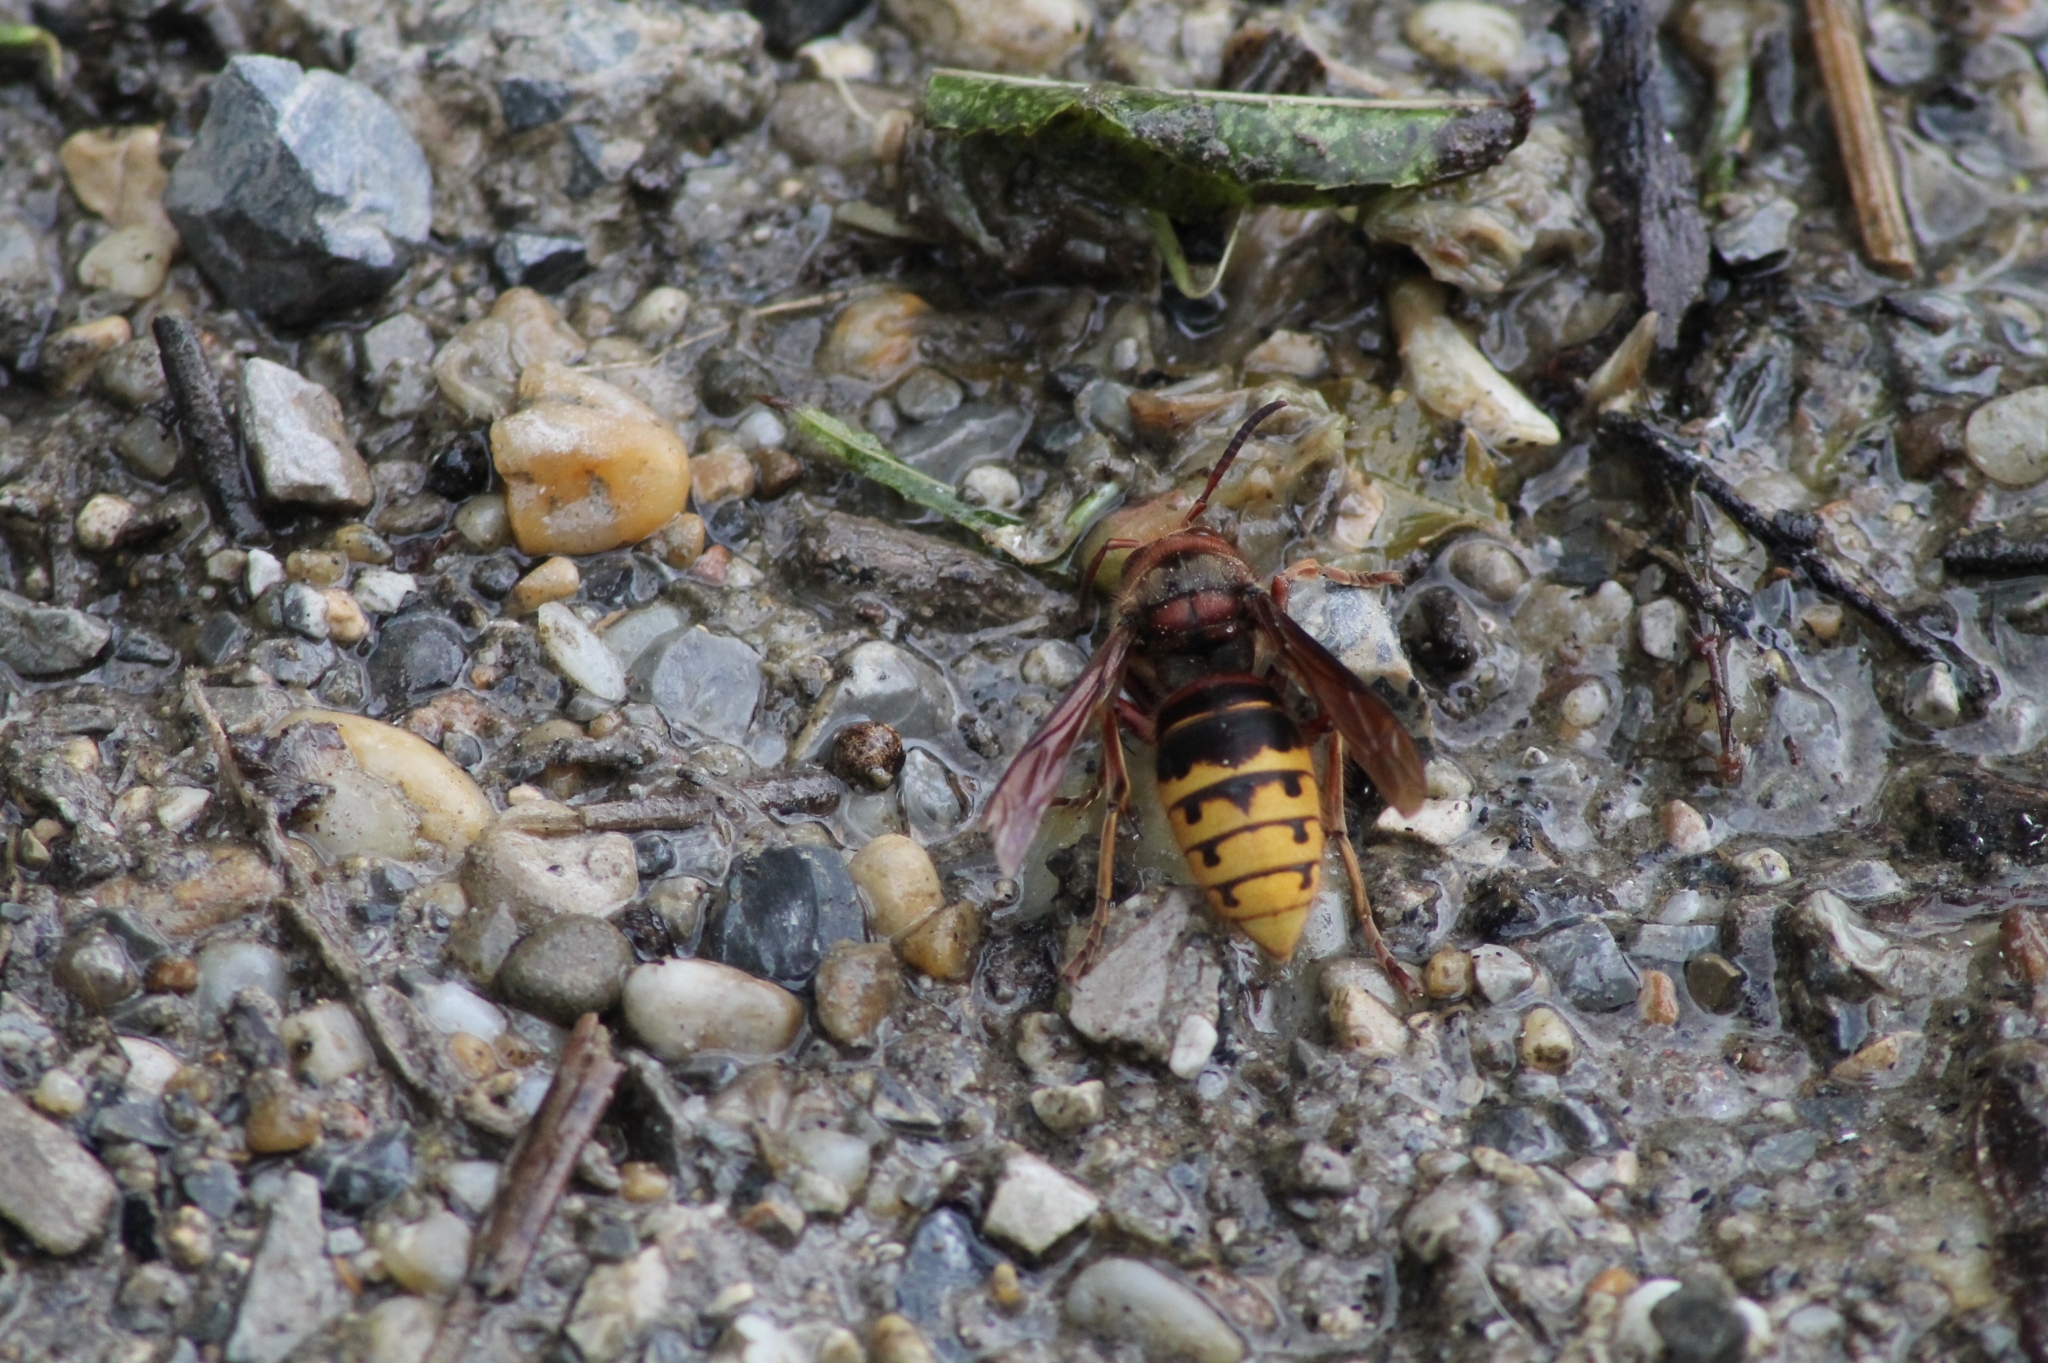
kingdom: Animalia
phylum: Arthropoda
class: Insecta
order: Hymenoptera
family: Vespidae
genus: Vespa
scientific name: Vespa crabro
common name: Hornet
